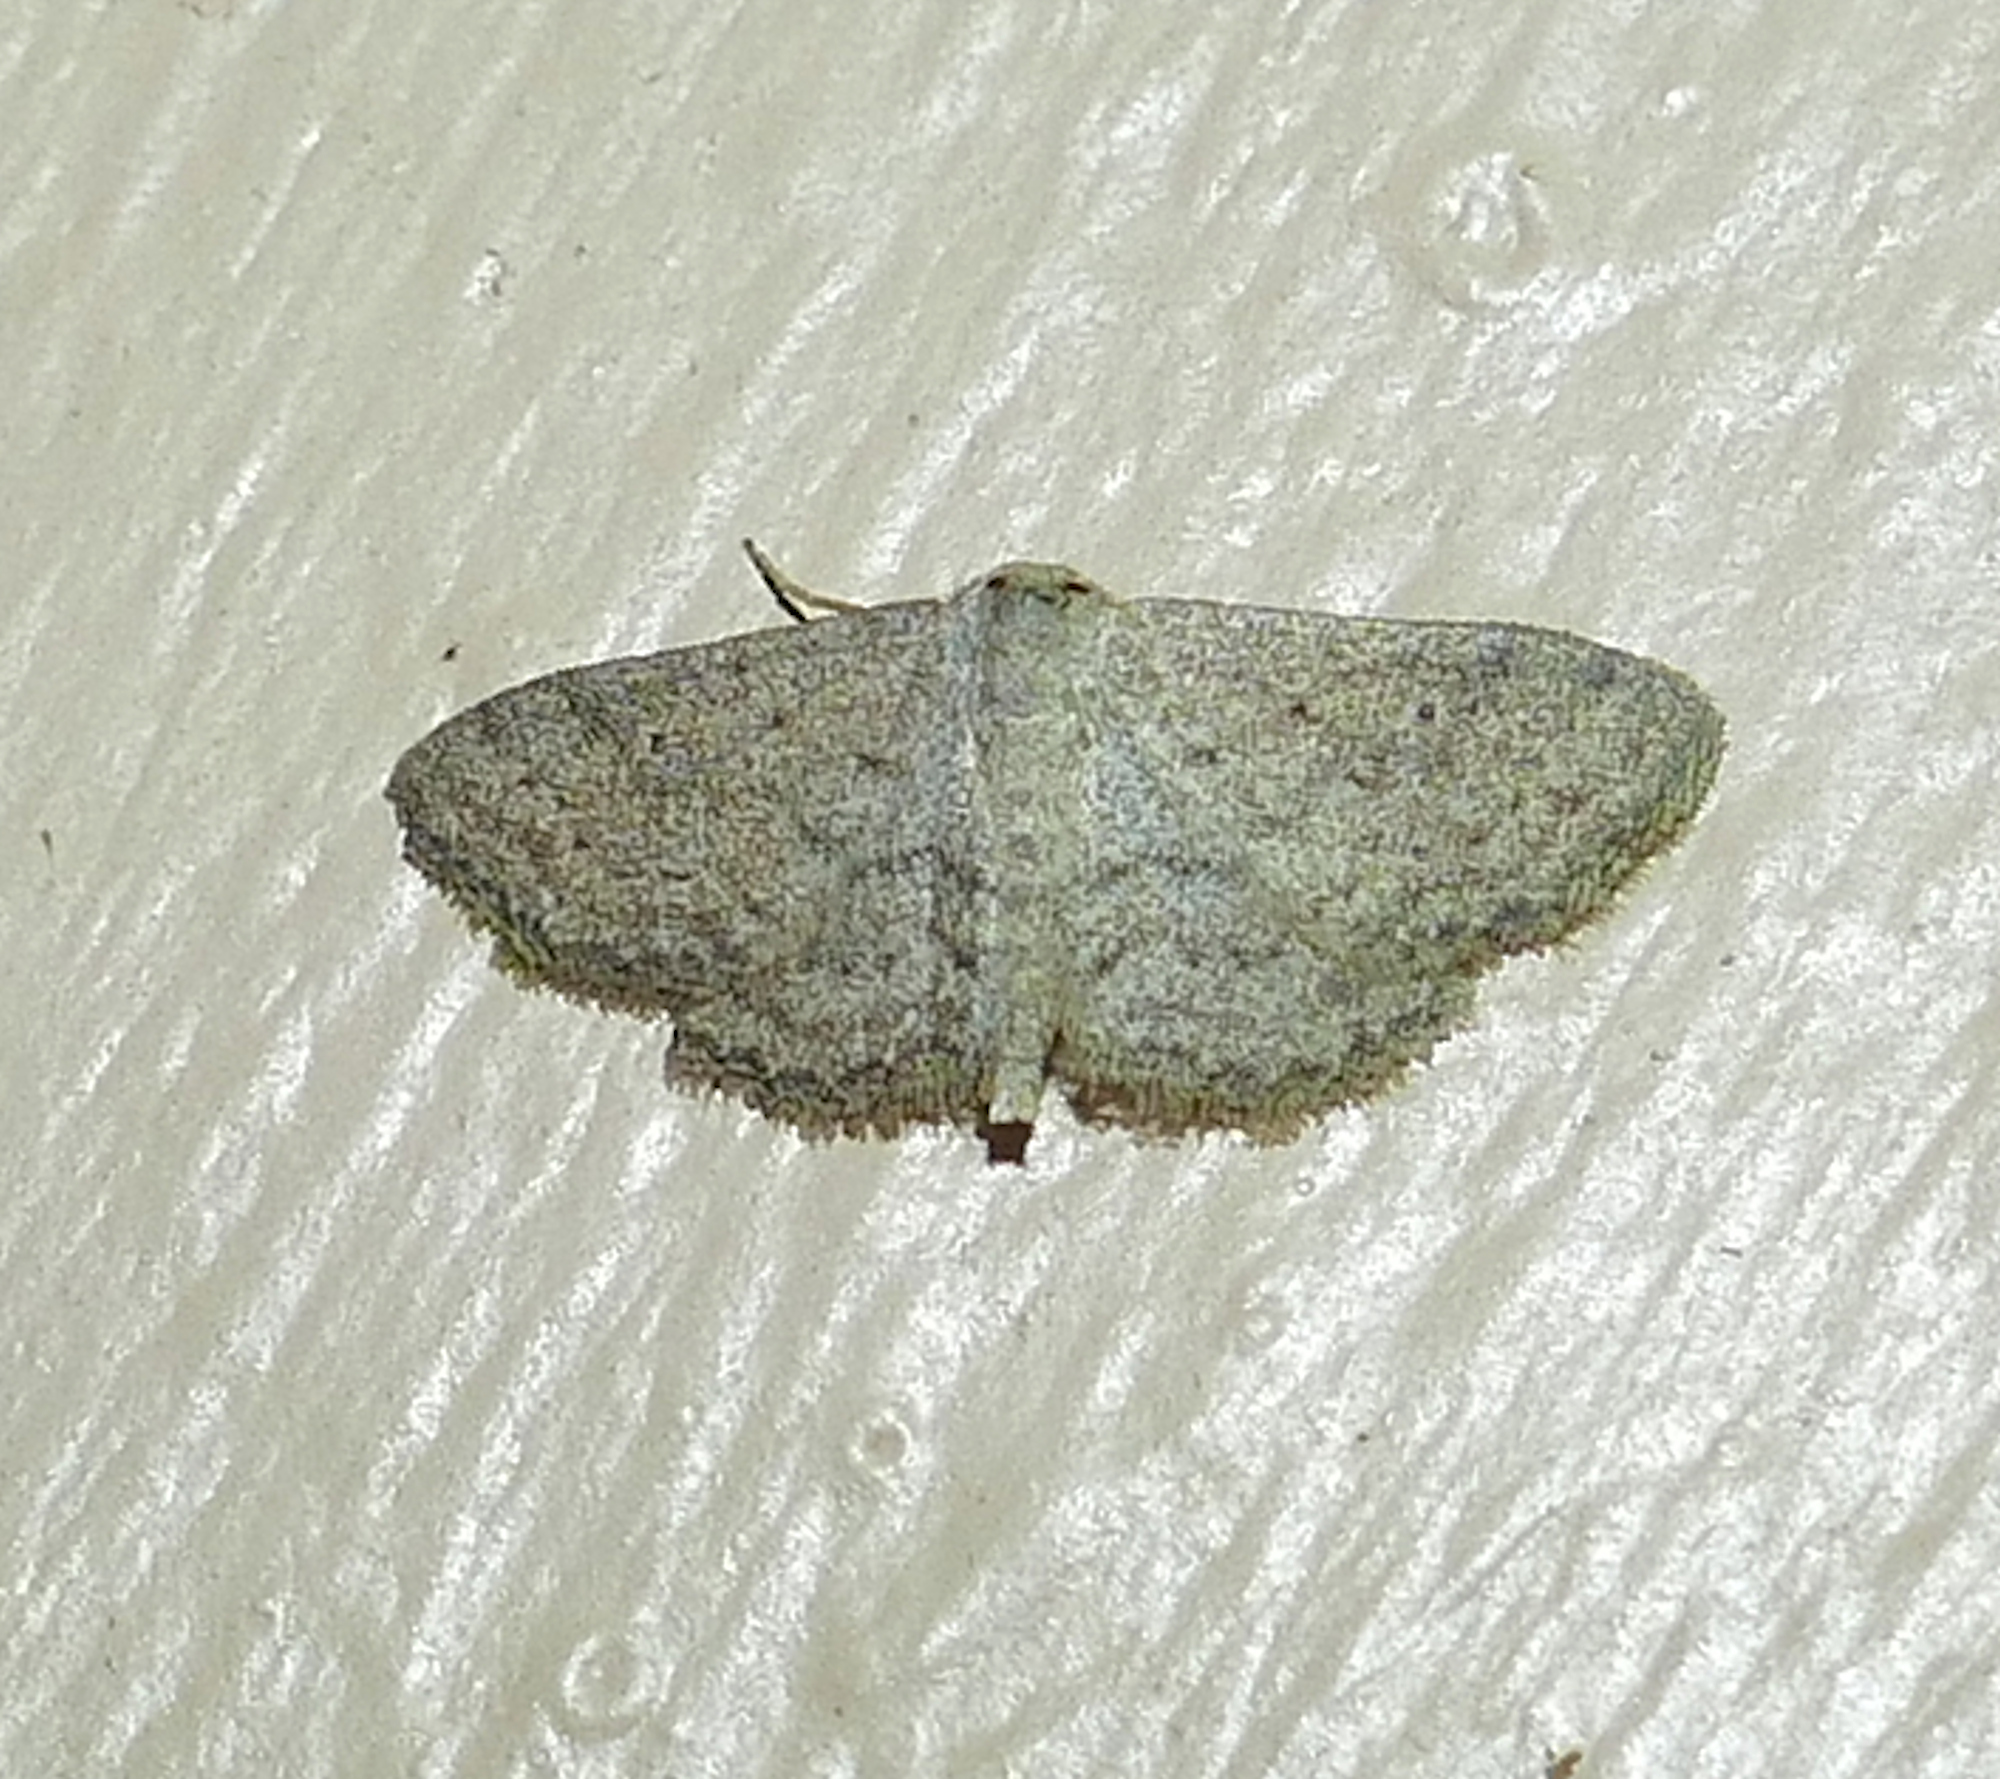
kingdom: Animalia
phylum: Arthropoda
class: Insecta
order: Lepidoptera
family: Geometridae
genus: Lobocleta
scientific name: Lobocleta ossularia
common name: Drab brown wave
